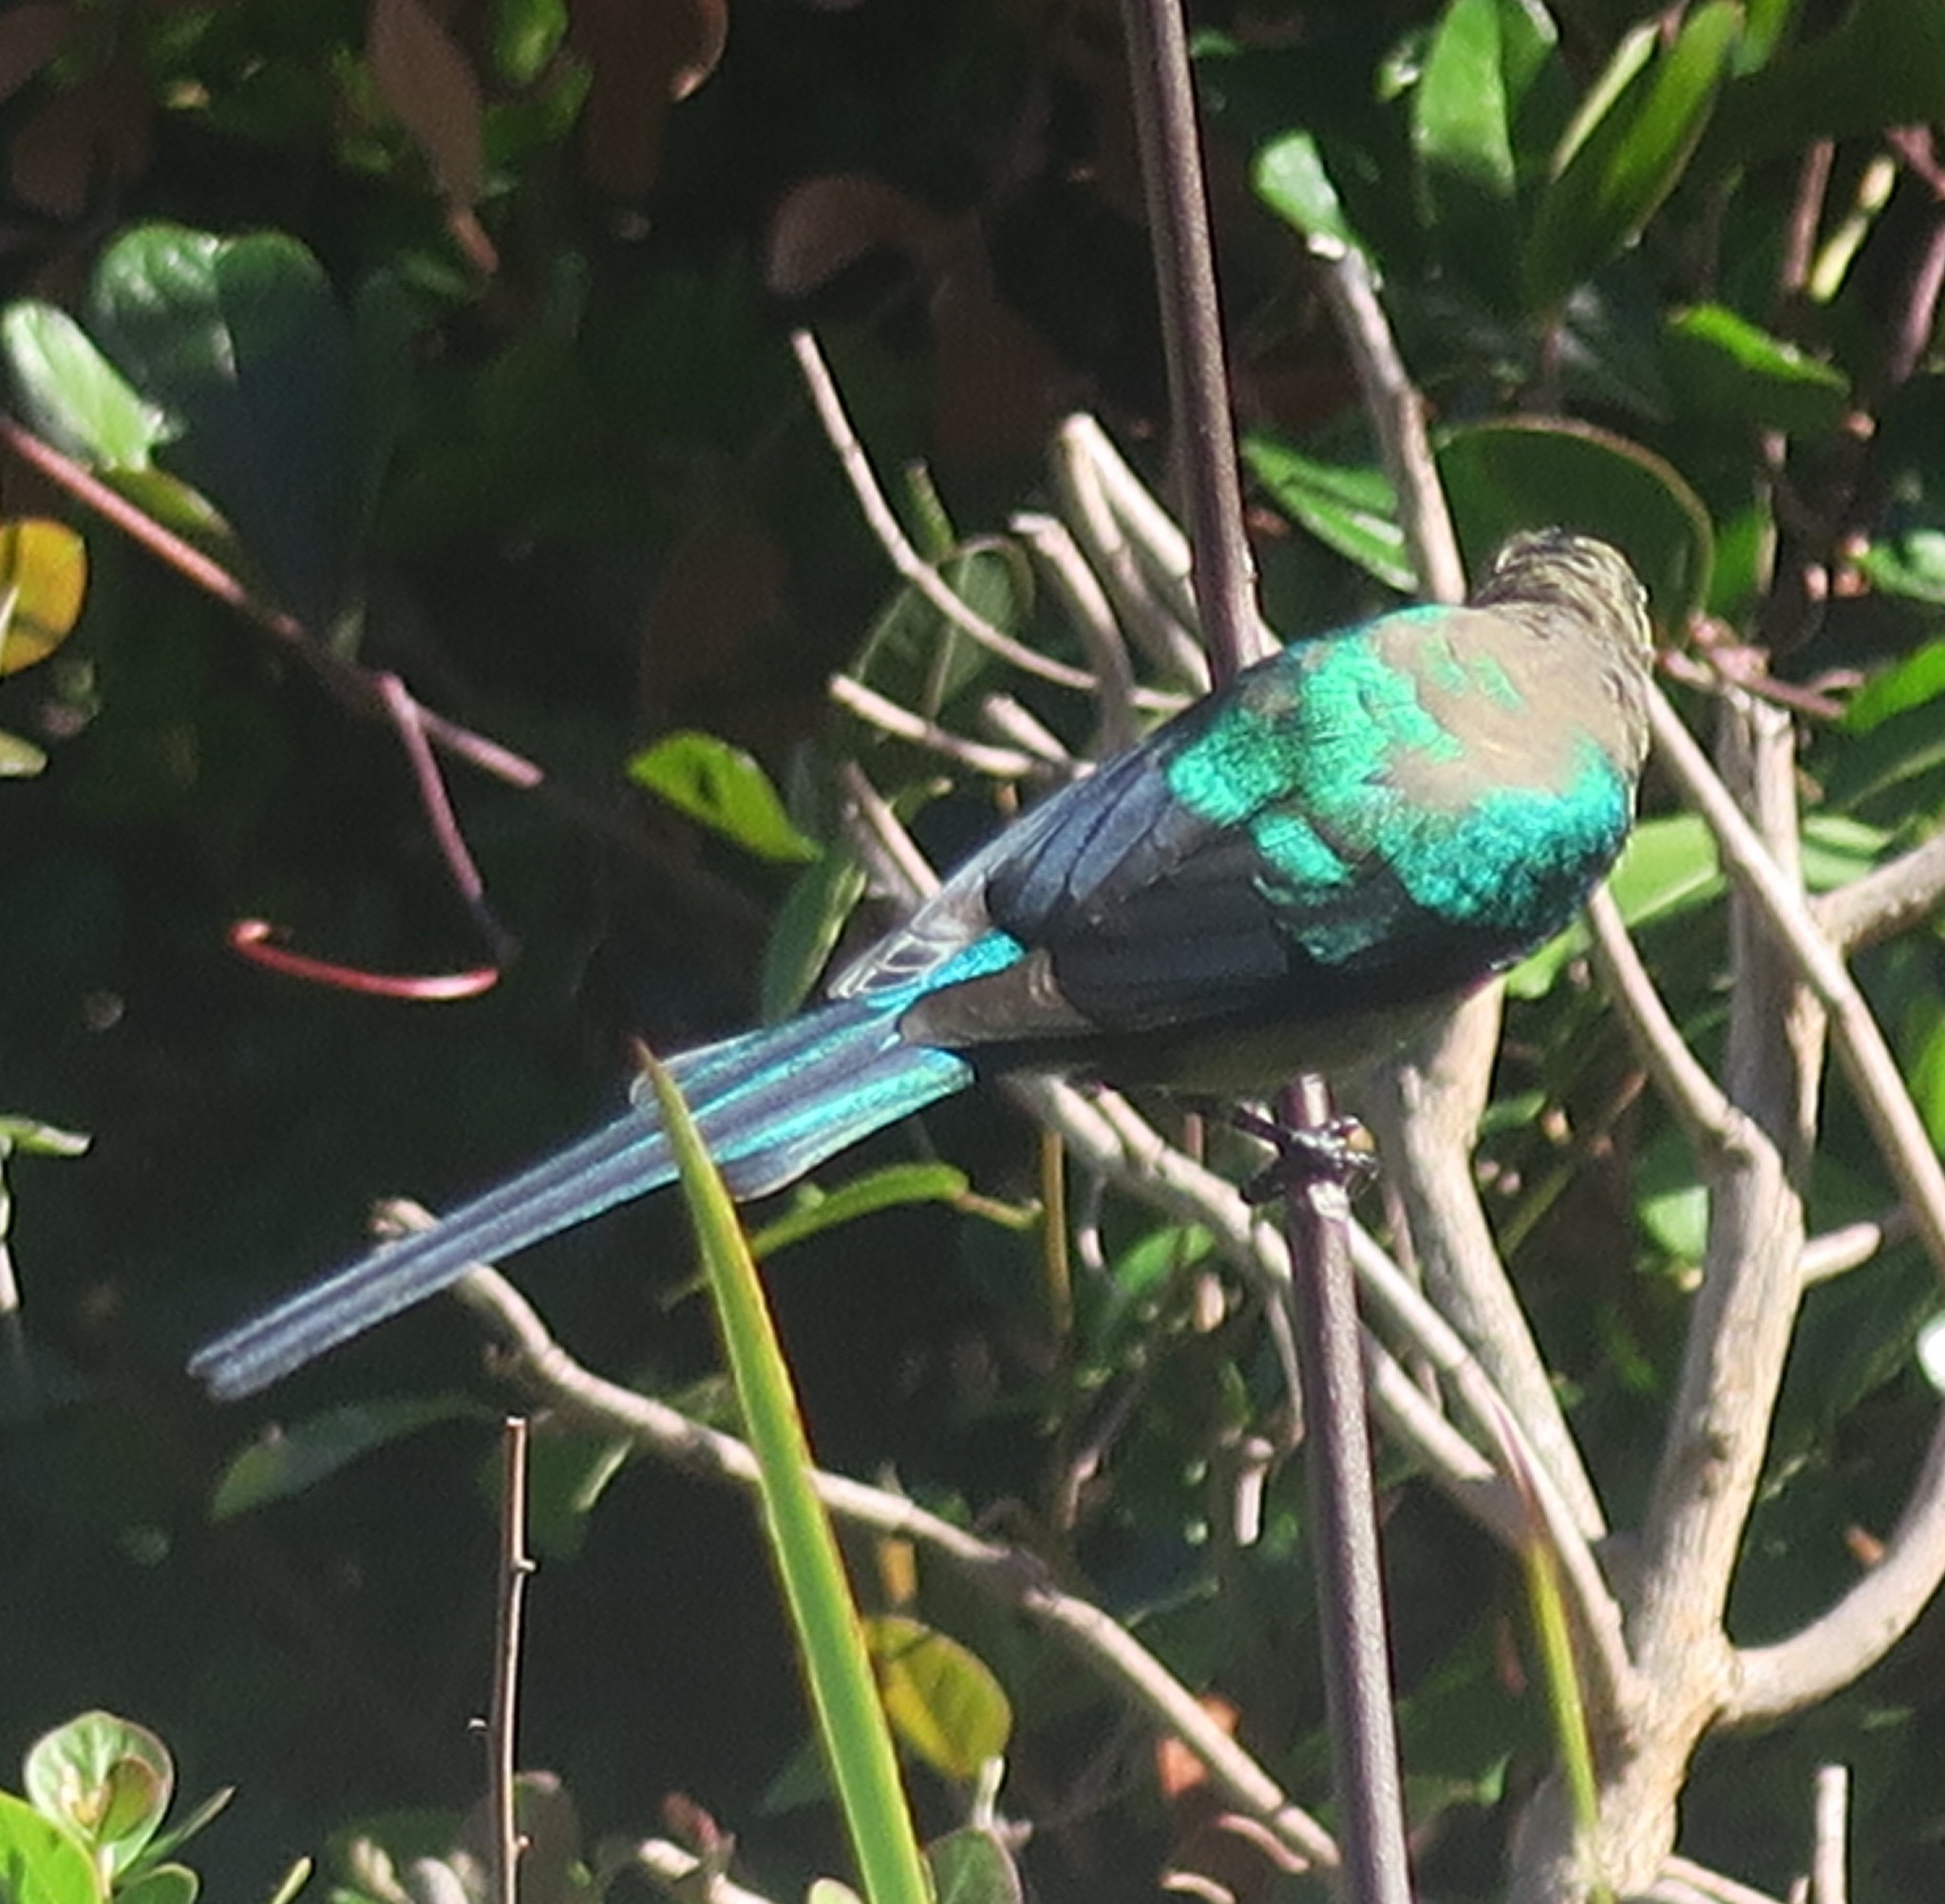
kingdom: Animalia
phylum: Chordata
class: Aves
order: Passeriformes
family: Nectariniidae
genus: Nectarinia
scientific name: Nectarinia famosa
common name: Malachite sunbird
